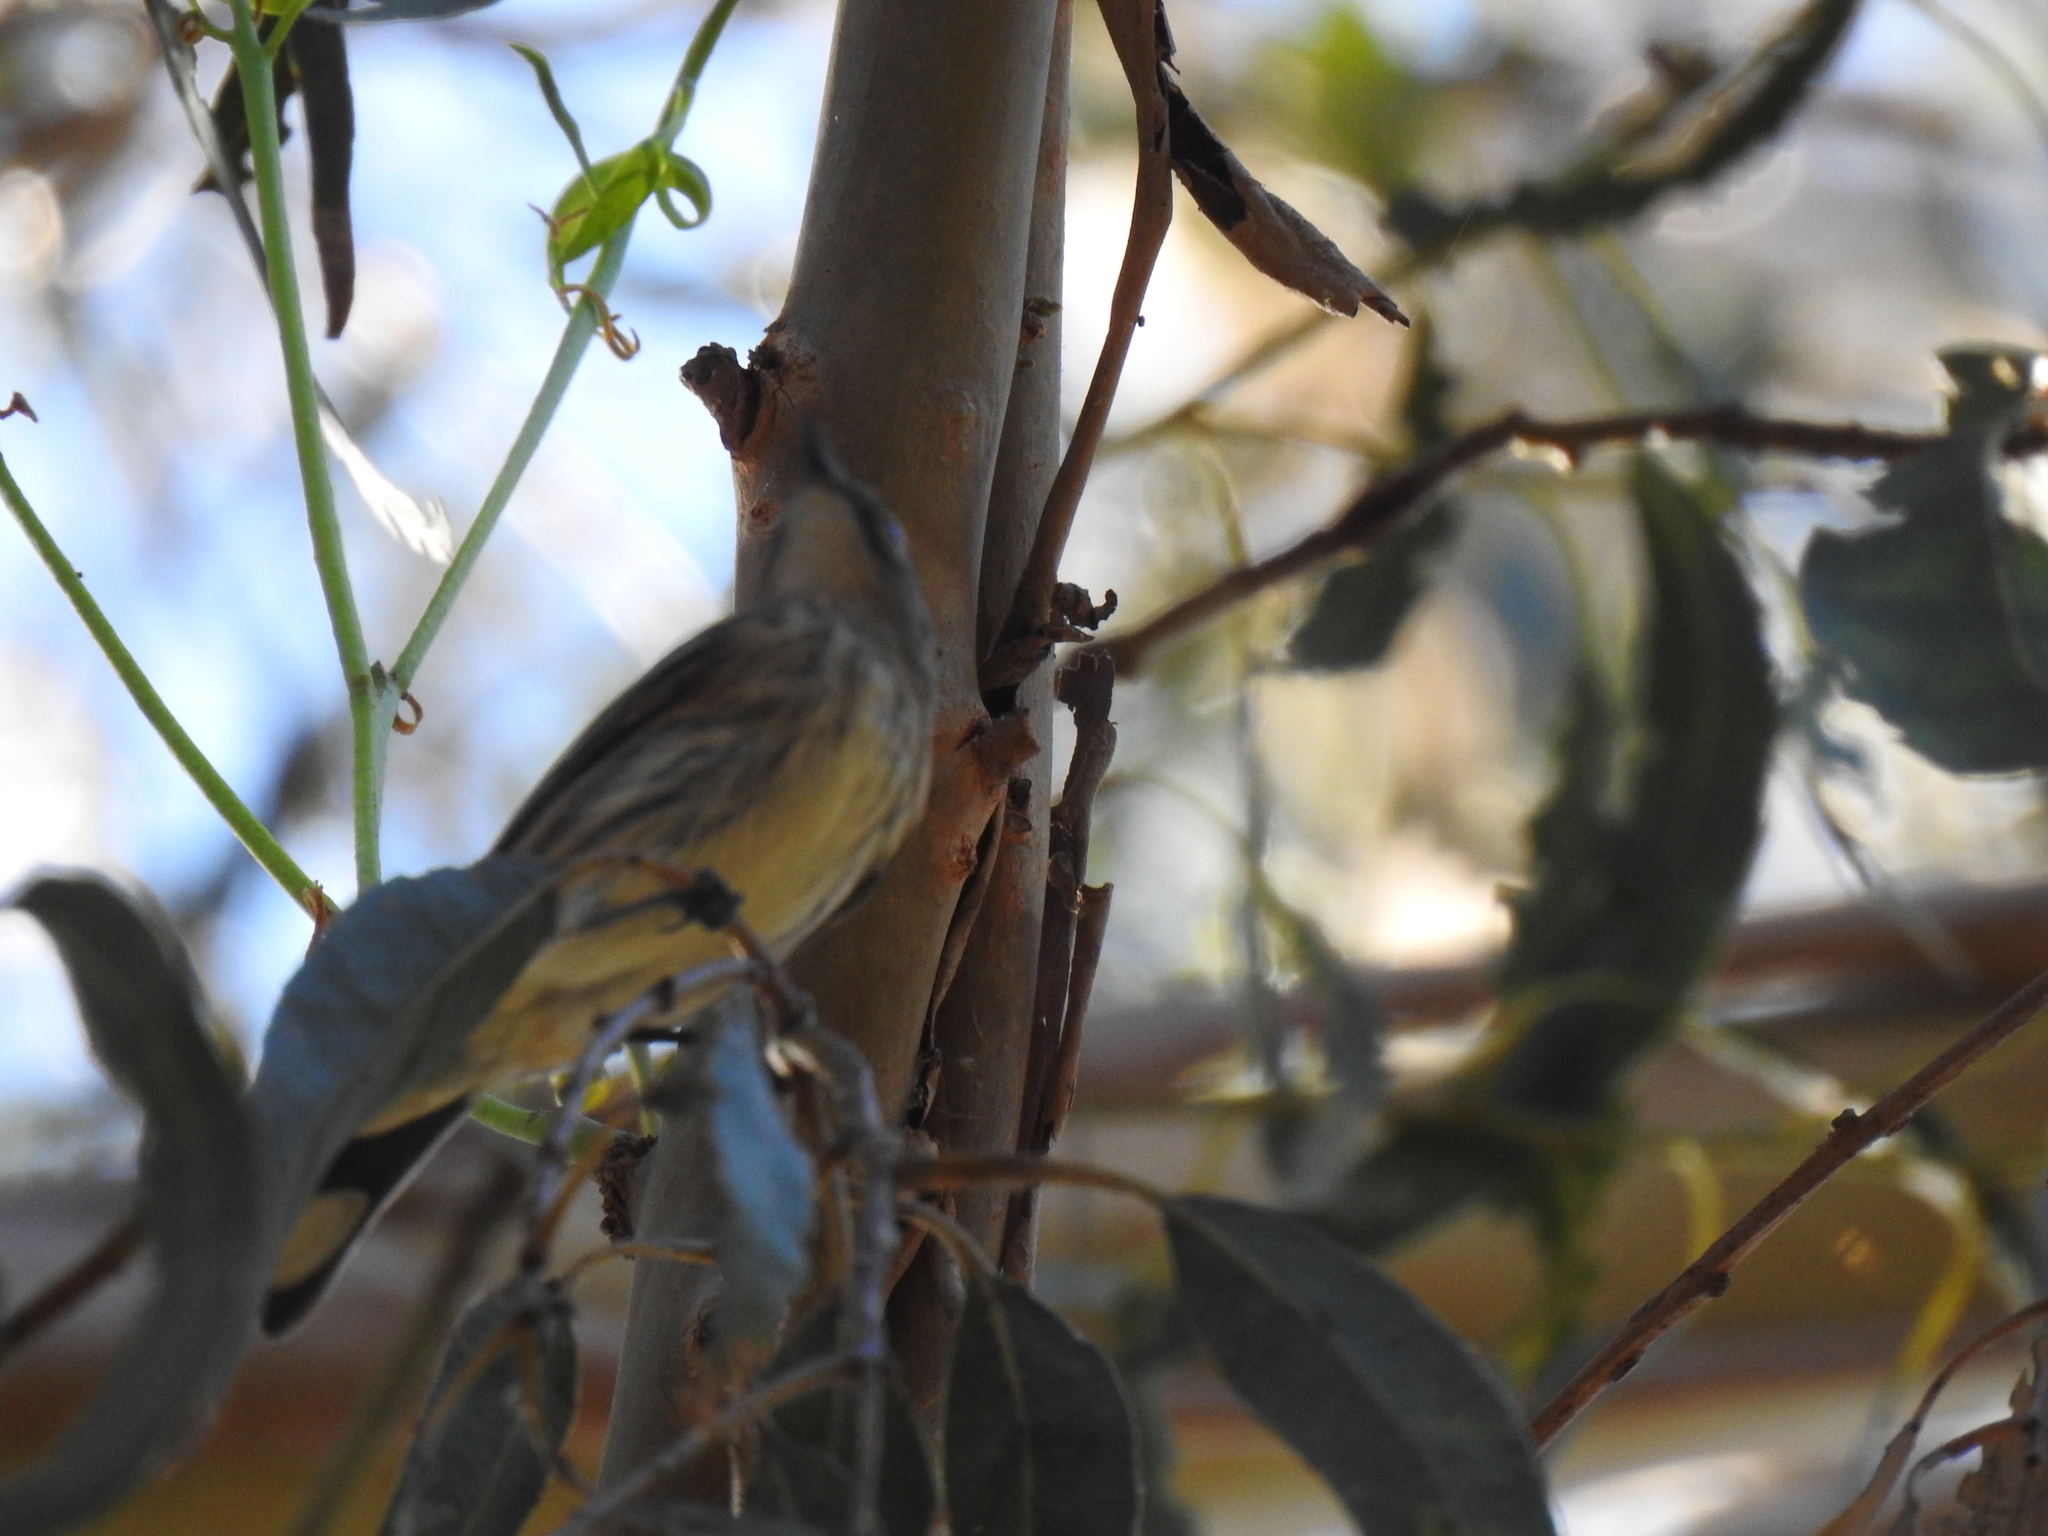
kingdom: Animalia
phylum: Chordata
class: Aves
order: Passeriformes
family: Parulidae
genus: Setophaga
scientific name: Setophaga coronata
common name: Myrtle warbler
